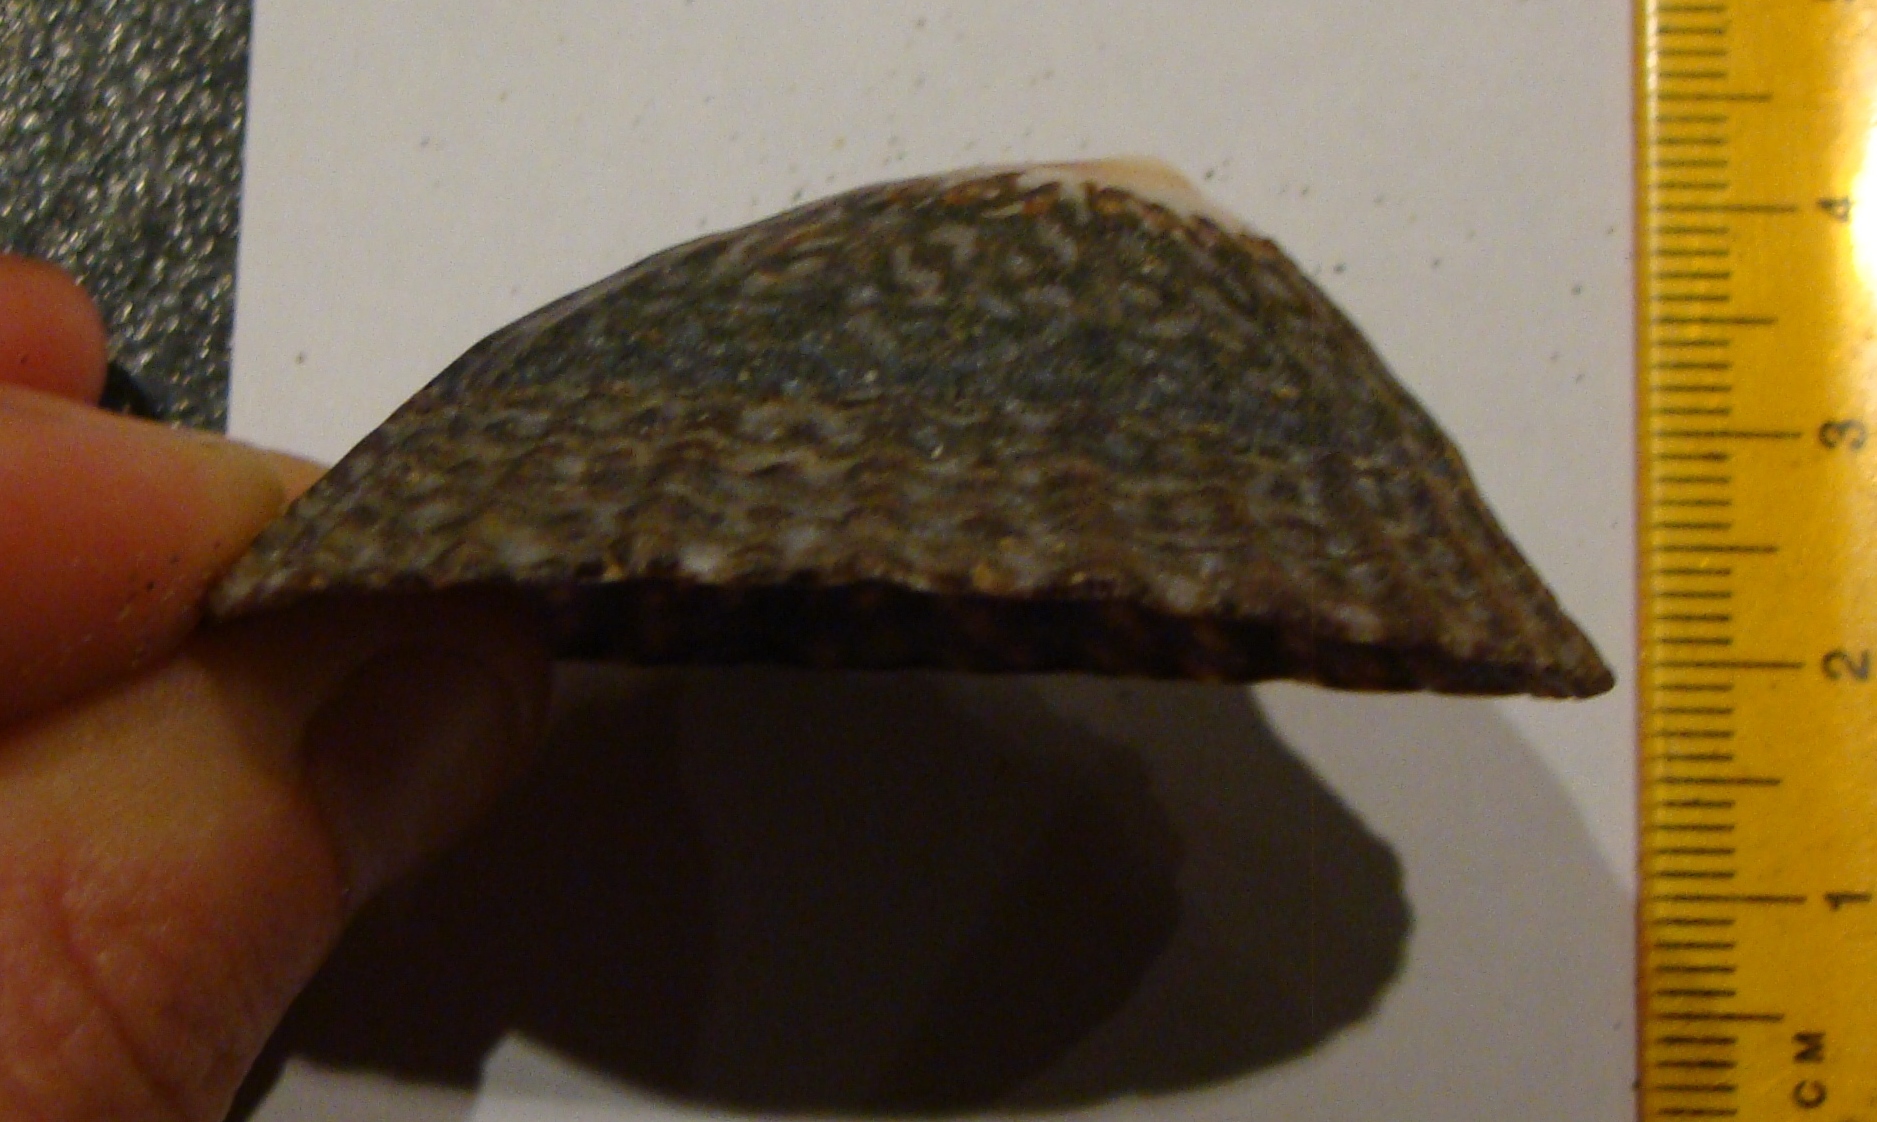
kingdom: Animalia
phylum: Mollusca
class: Gastropoda
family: Nacellidae
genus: Cellana
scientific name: Cellana denticulata
